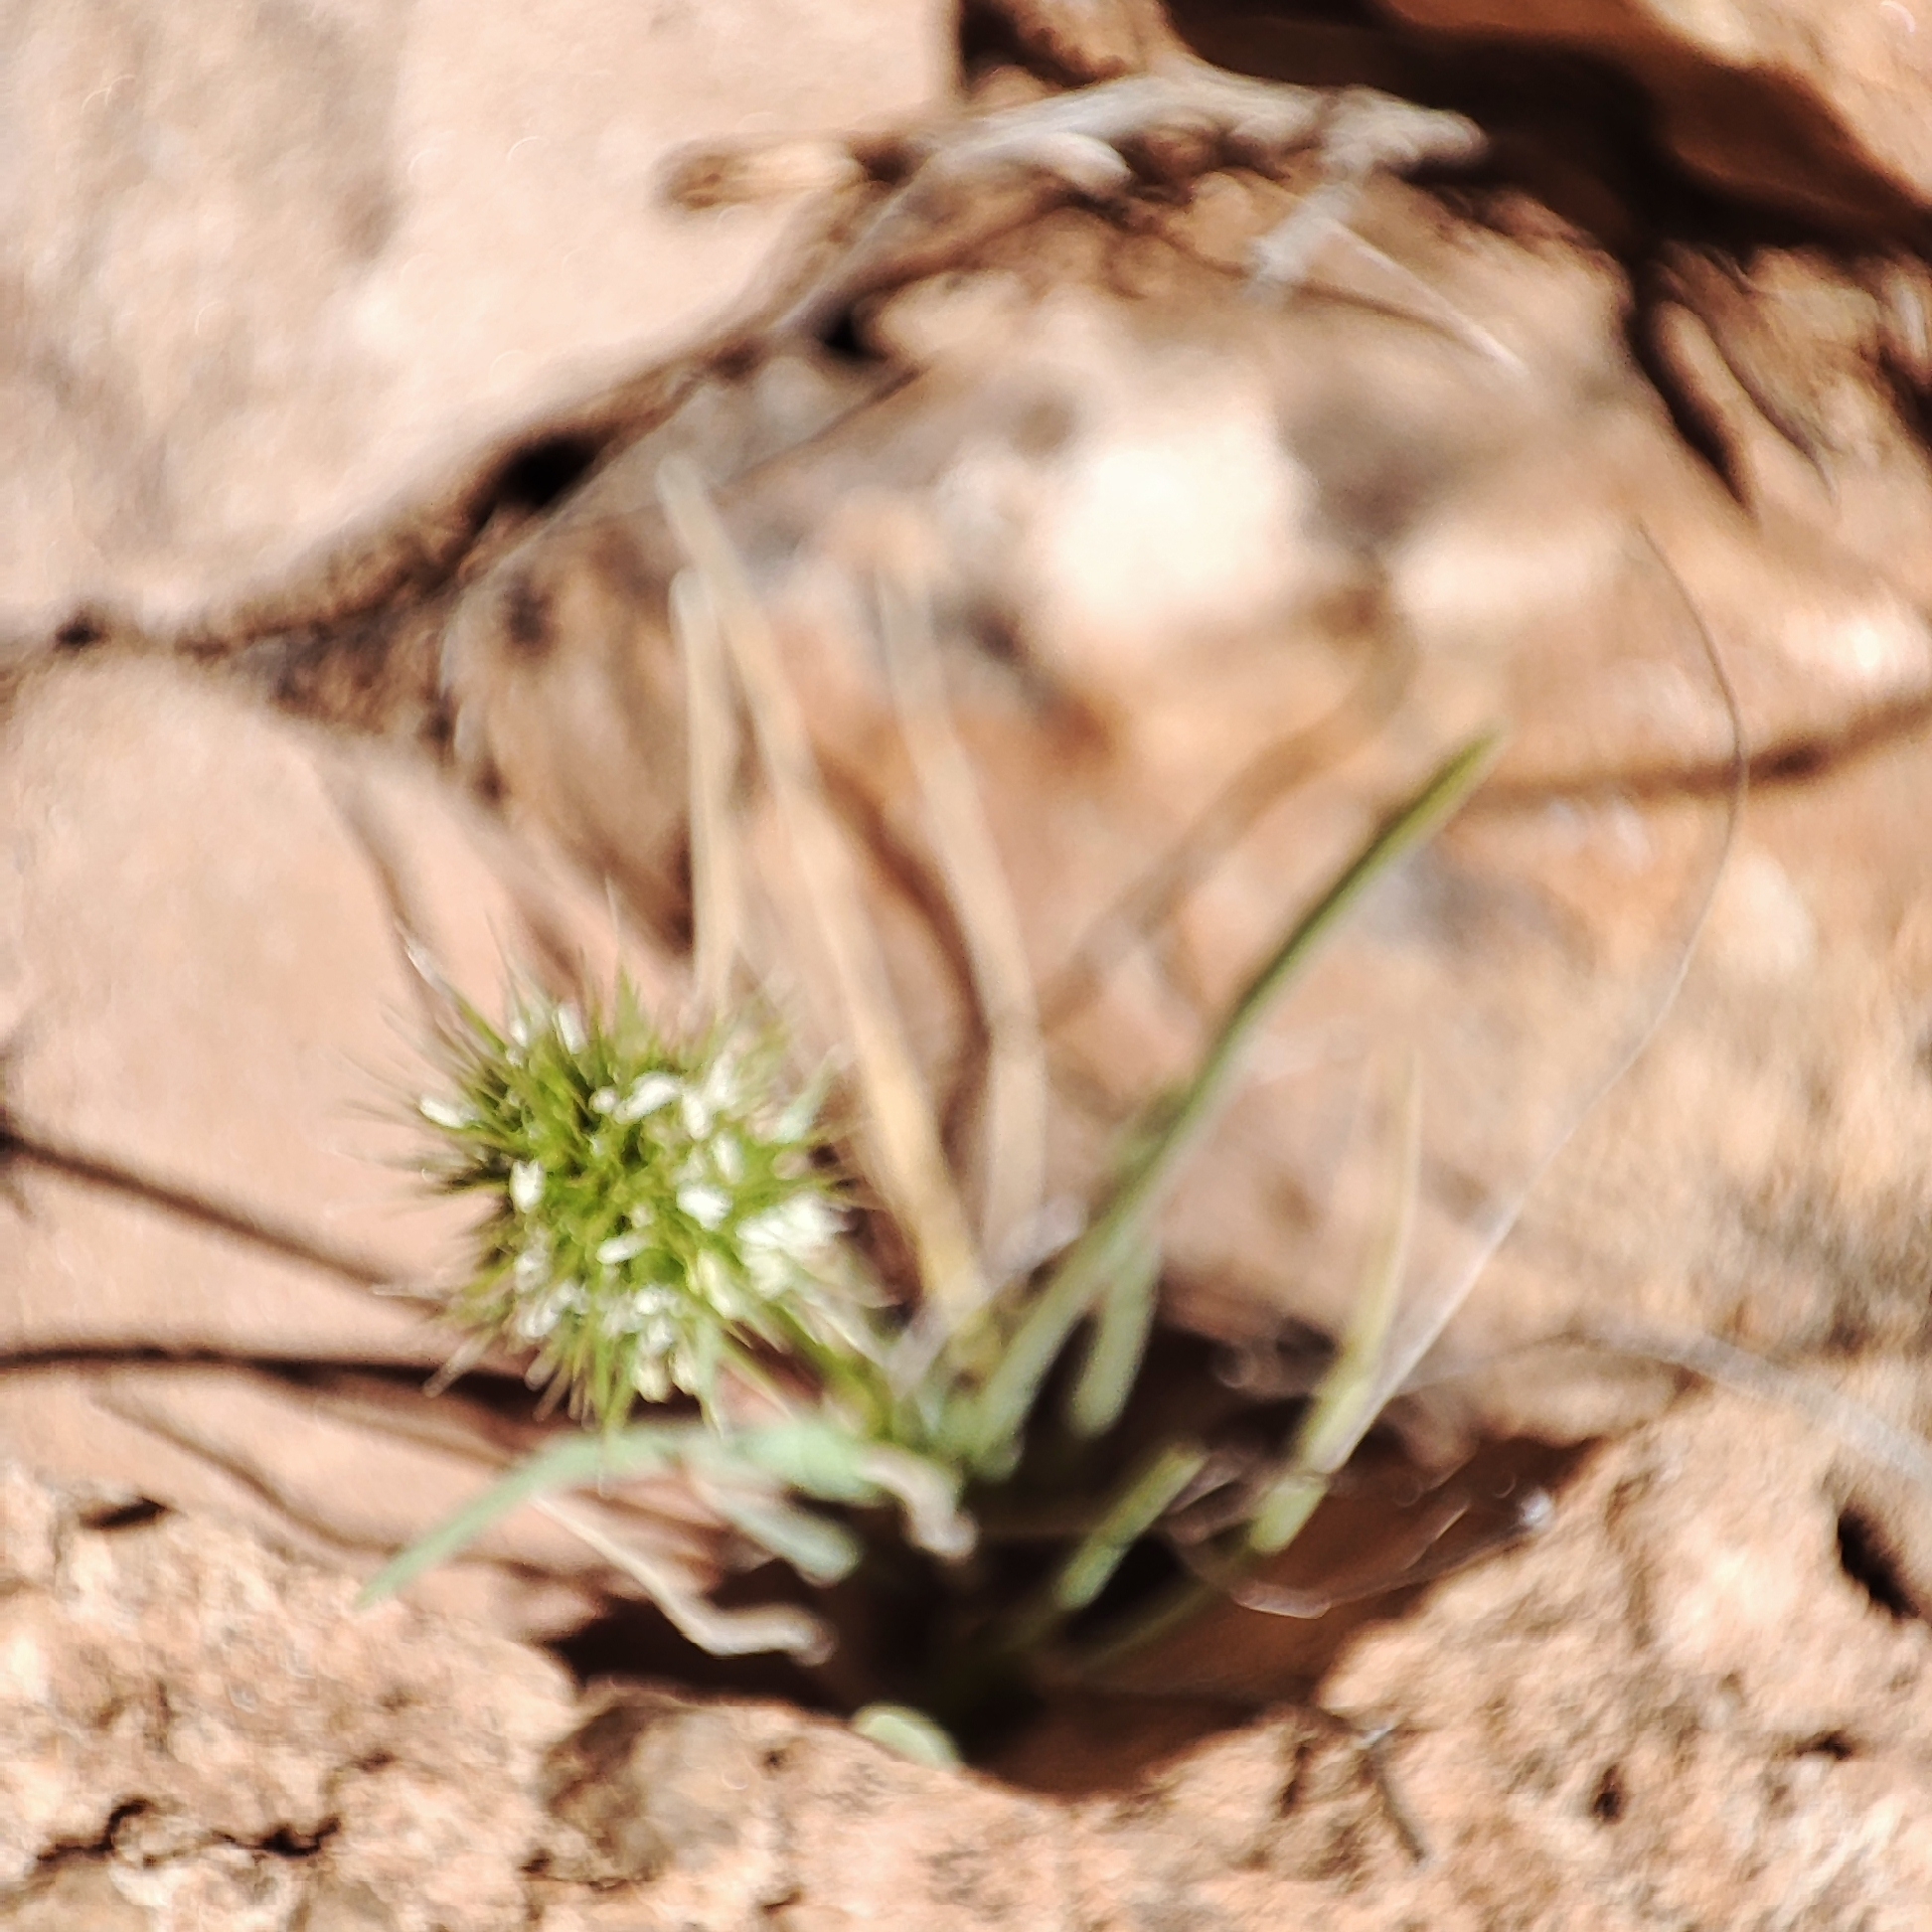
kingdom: Plantae
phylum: Tracheophyta
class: Liliopsida
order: Poales
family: Poaceae
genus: Echinaria
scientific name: Echinaria capitata
